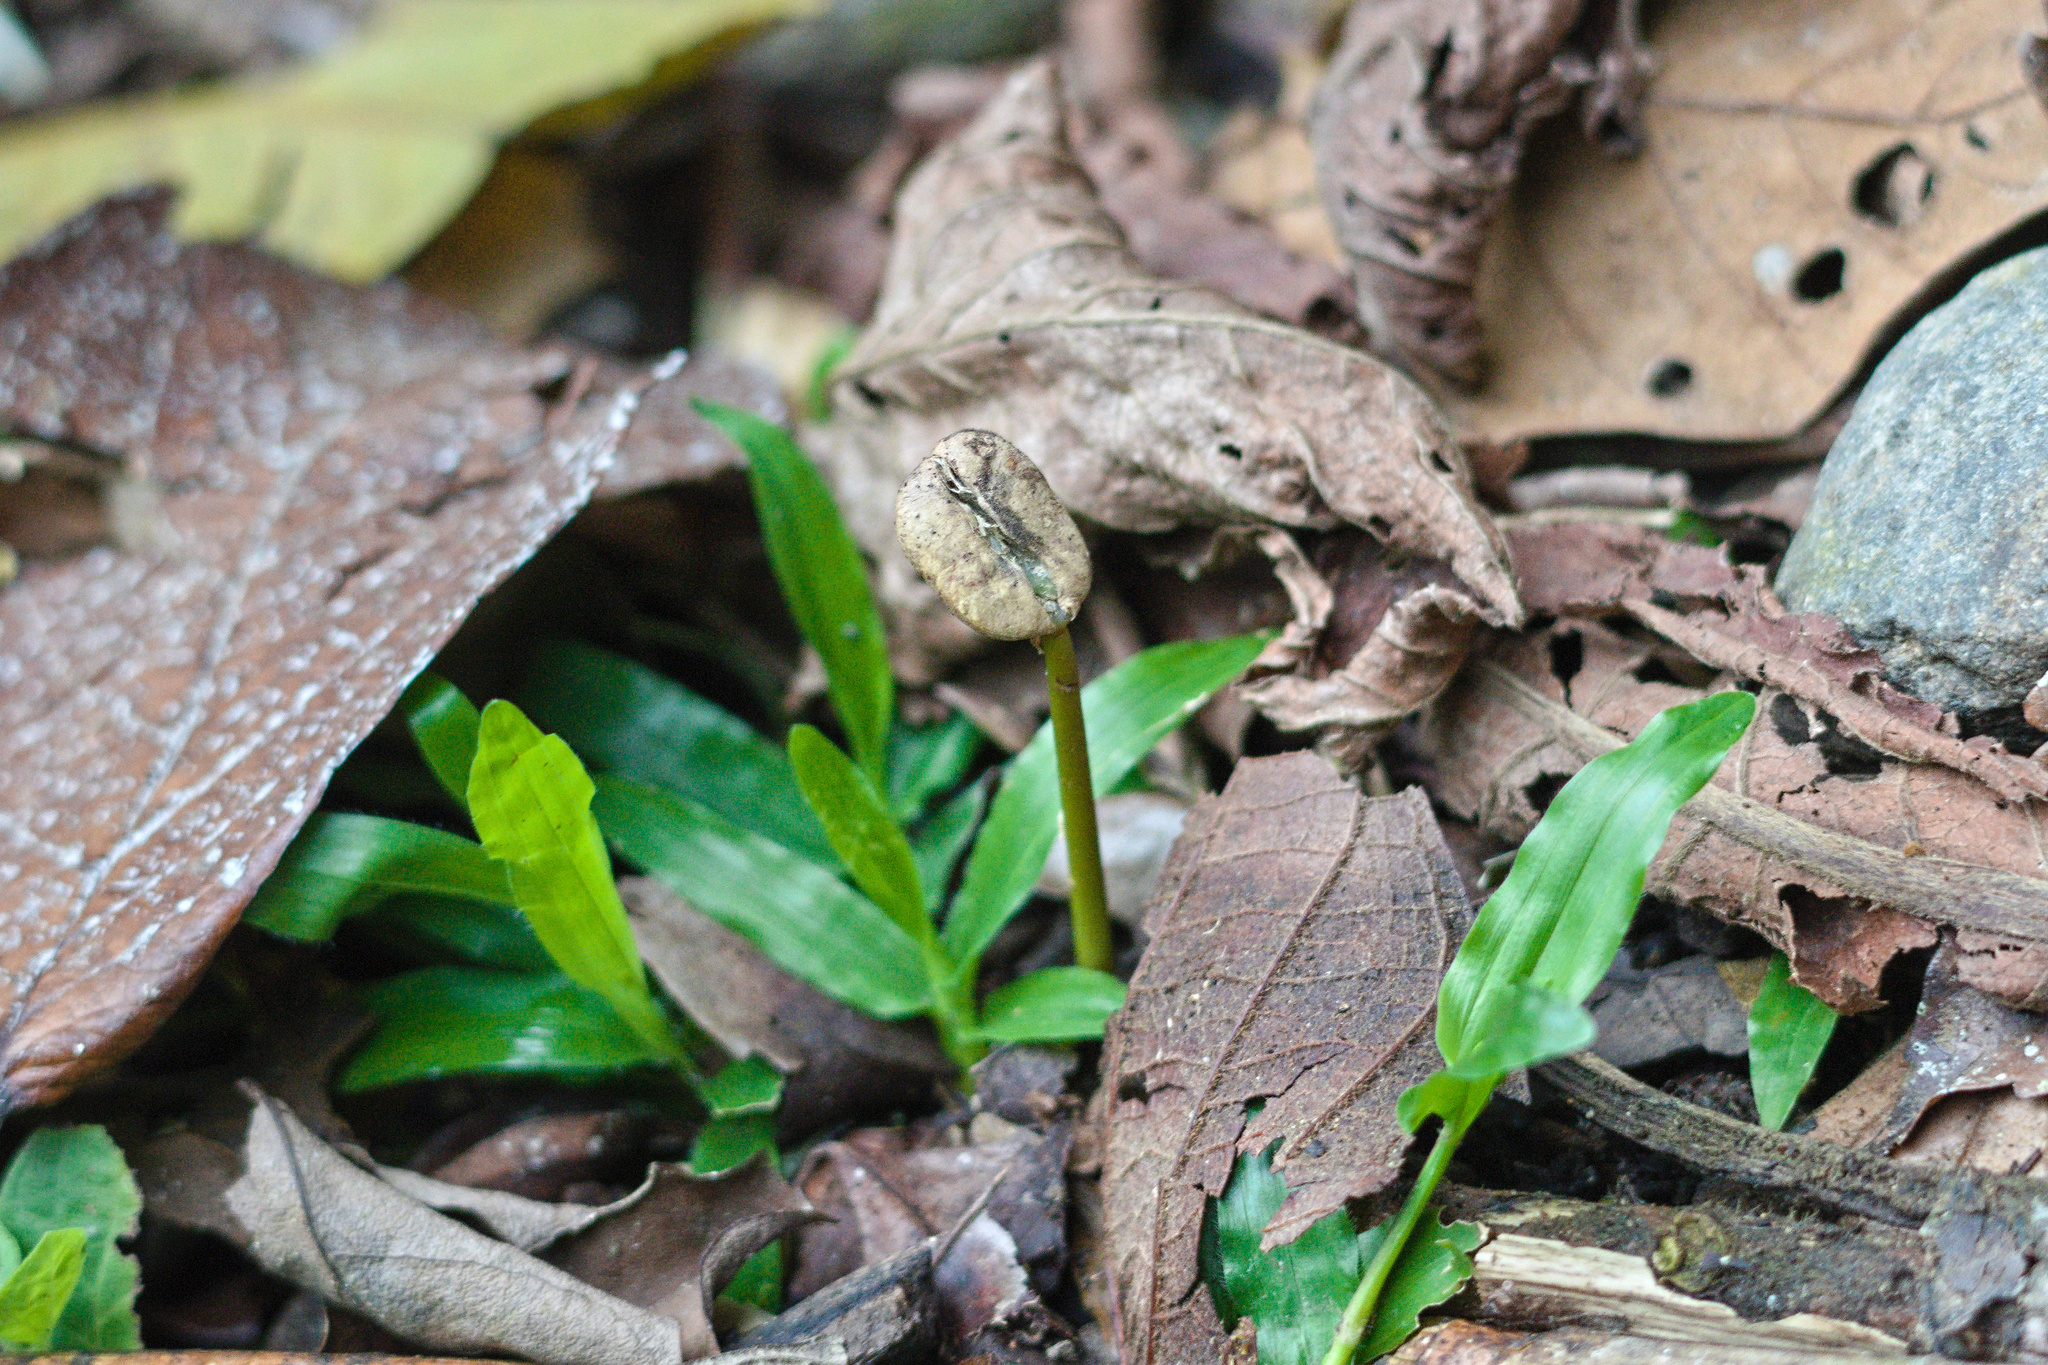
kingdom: Plantae
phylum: Tracheophyta
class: Magnoliopsida
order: Gentianales
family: Rubiaceae
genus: Coffea
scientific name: Coffea arabica
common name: Coffee
